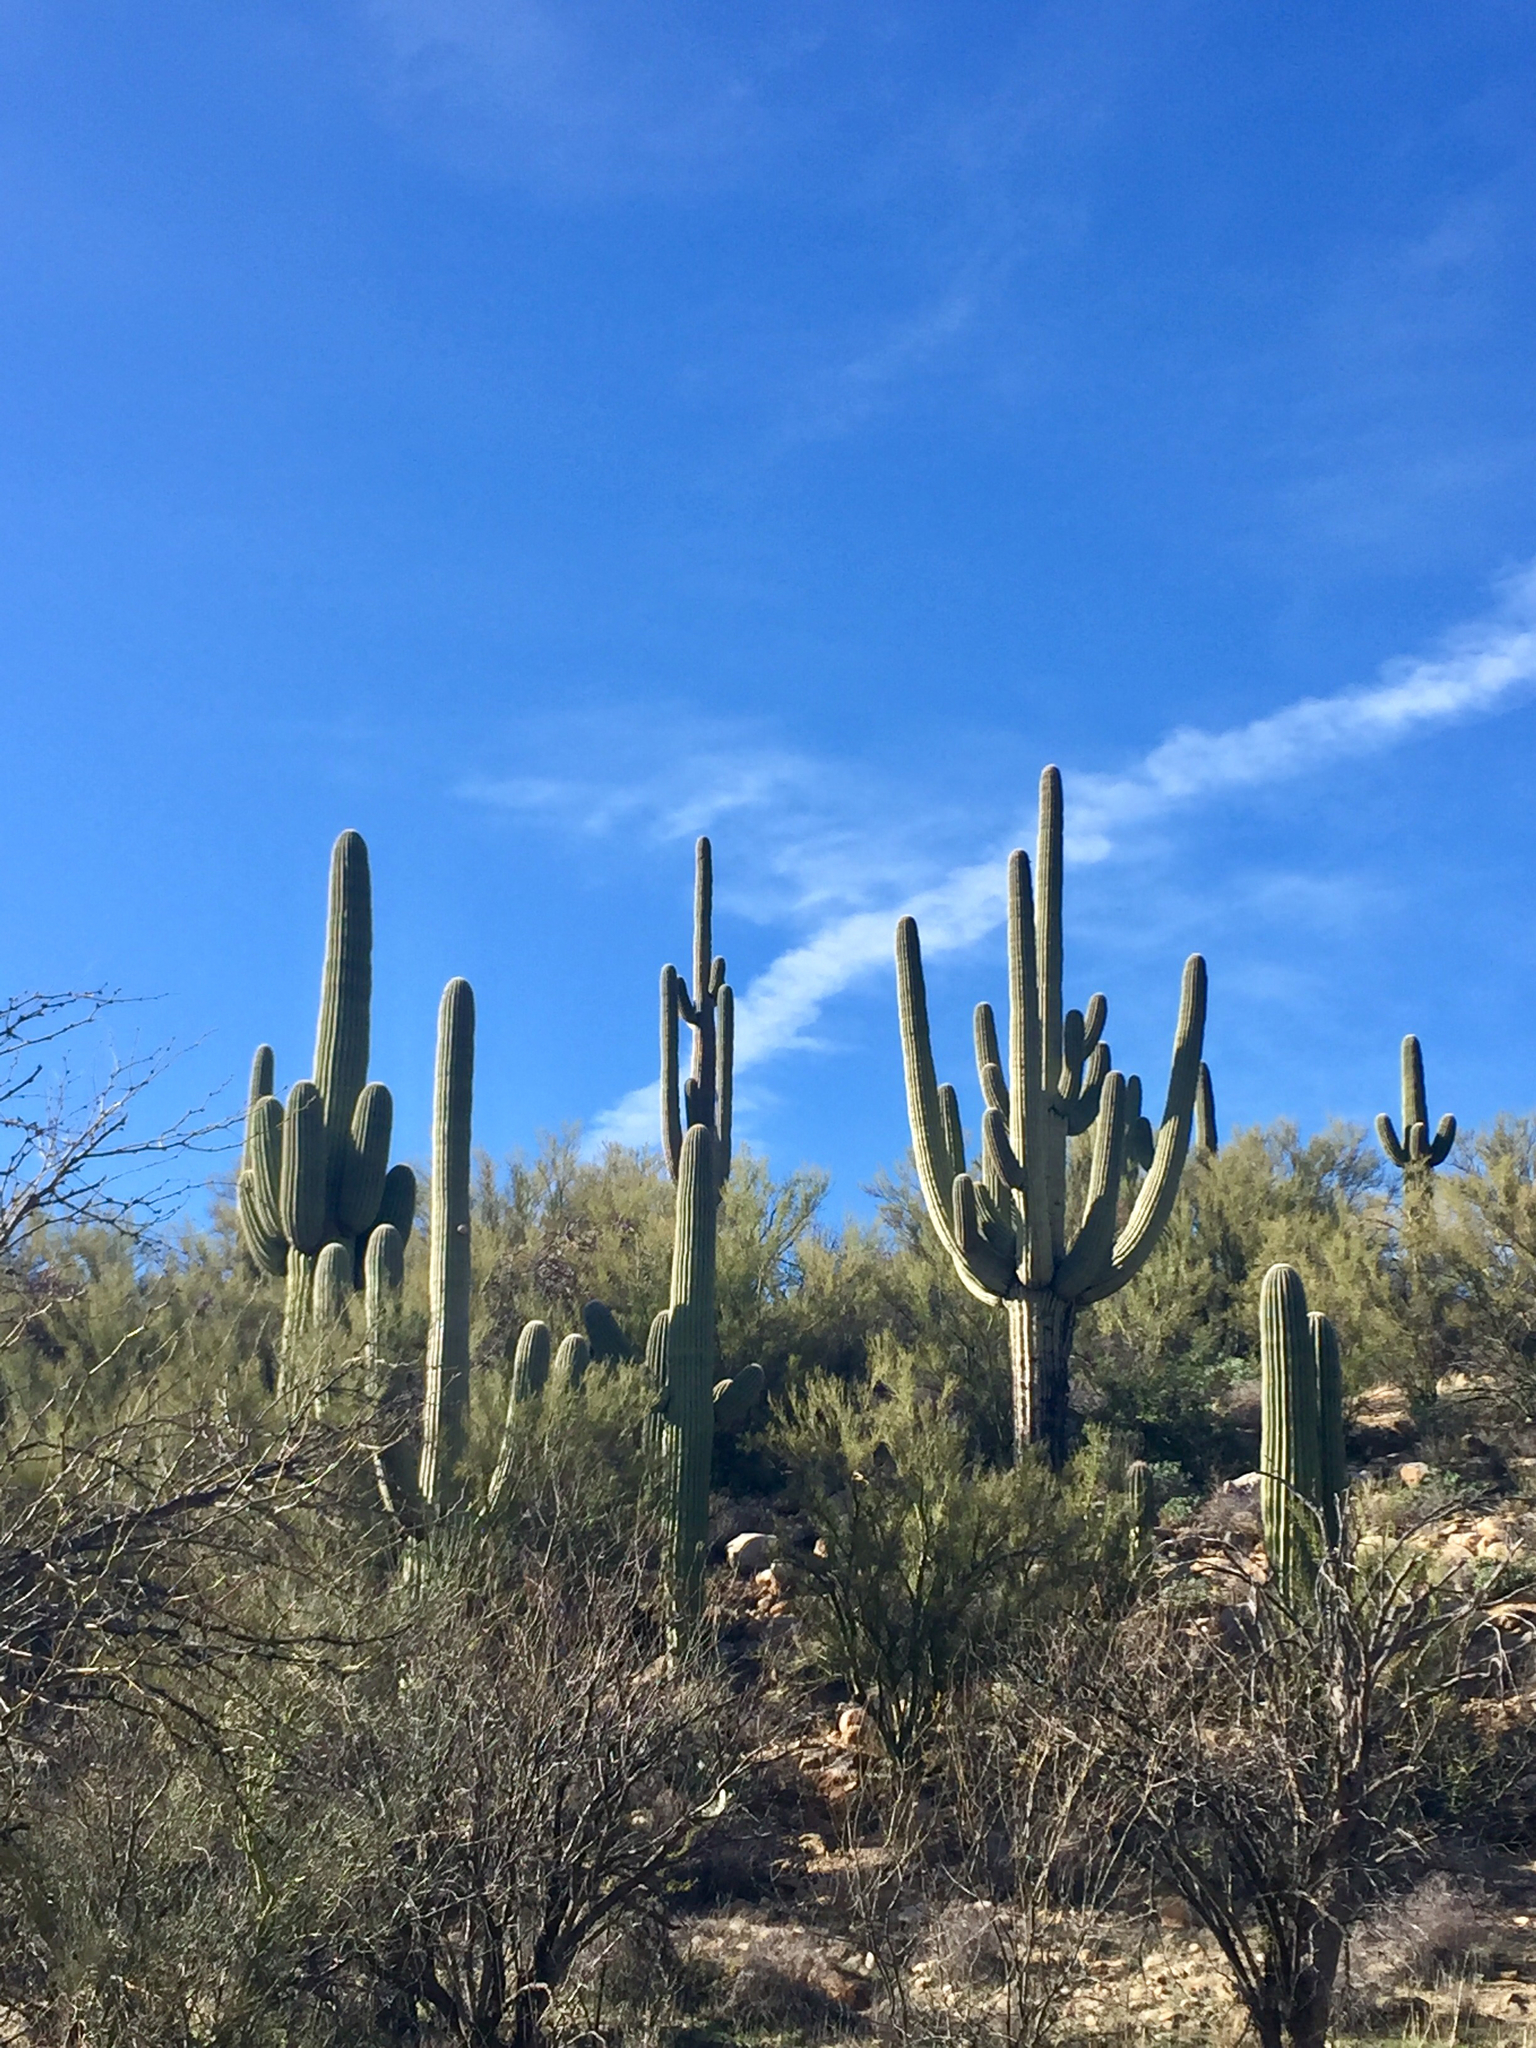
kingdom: Plantae
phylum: Tracheophyta
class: Magnoliopsida
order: Caryophyllales
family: Cactaceae
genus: Carnegiea
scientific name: Carnegiea gigantea
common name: Saguaro
